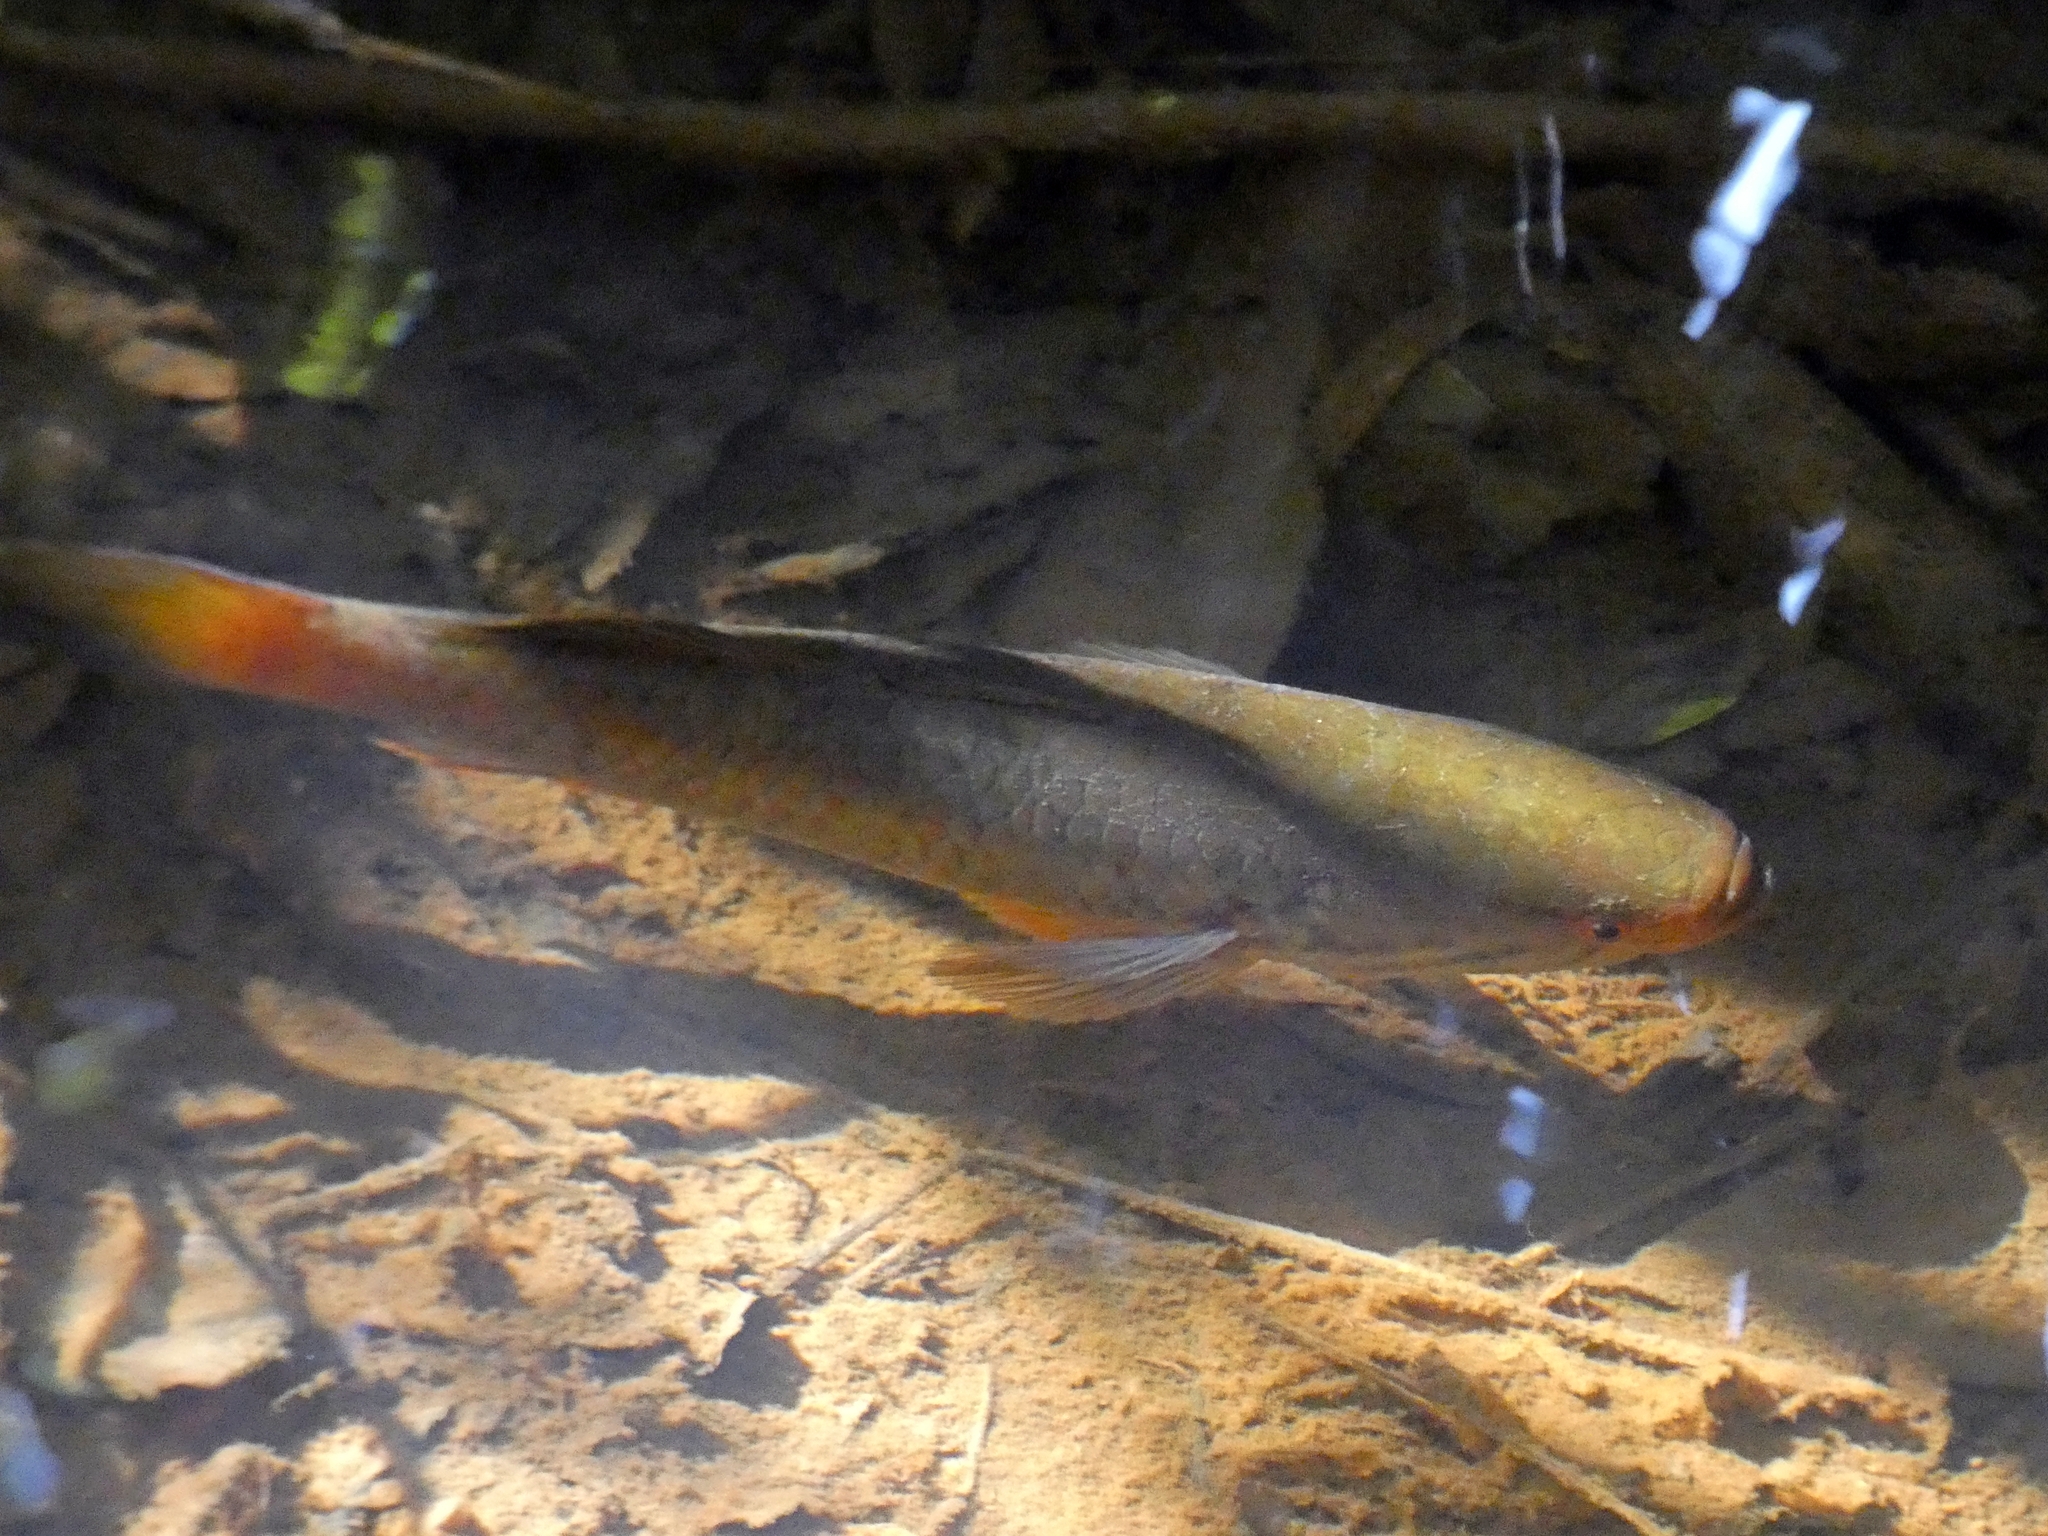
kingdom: Animalia
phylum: Chordata
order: Perciformes
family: Eleotridae
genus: Giuris
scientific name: Giuris
